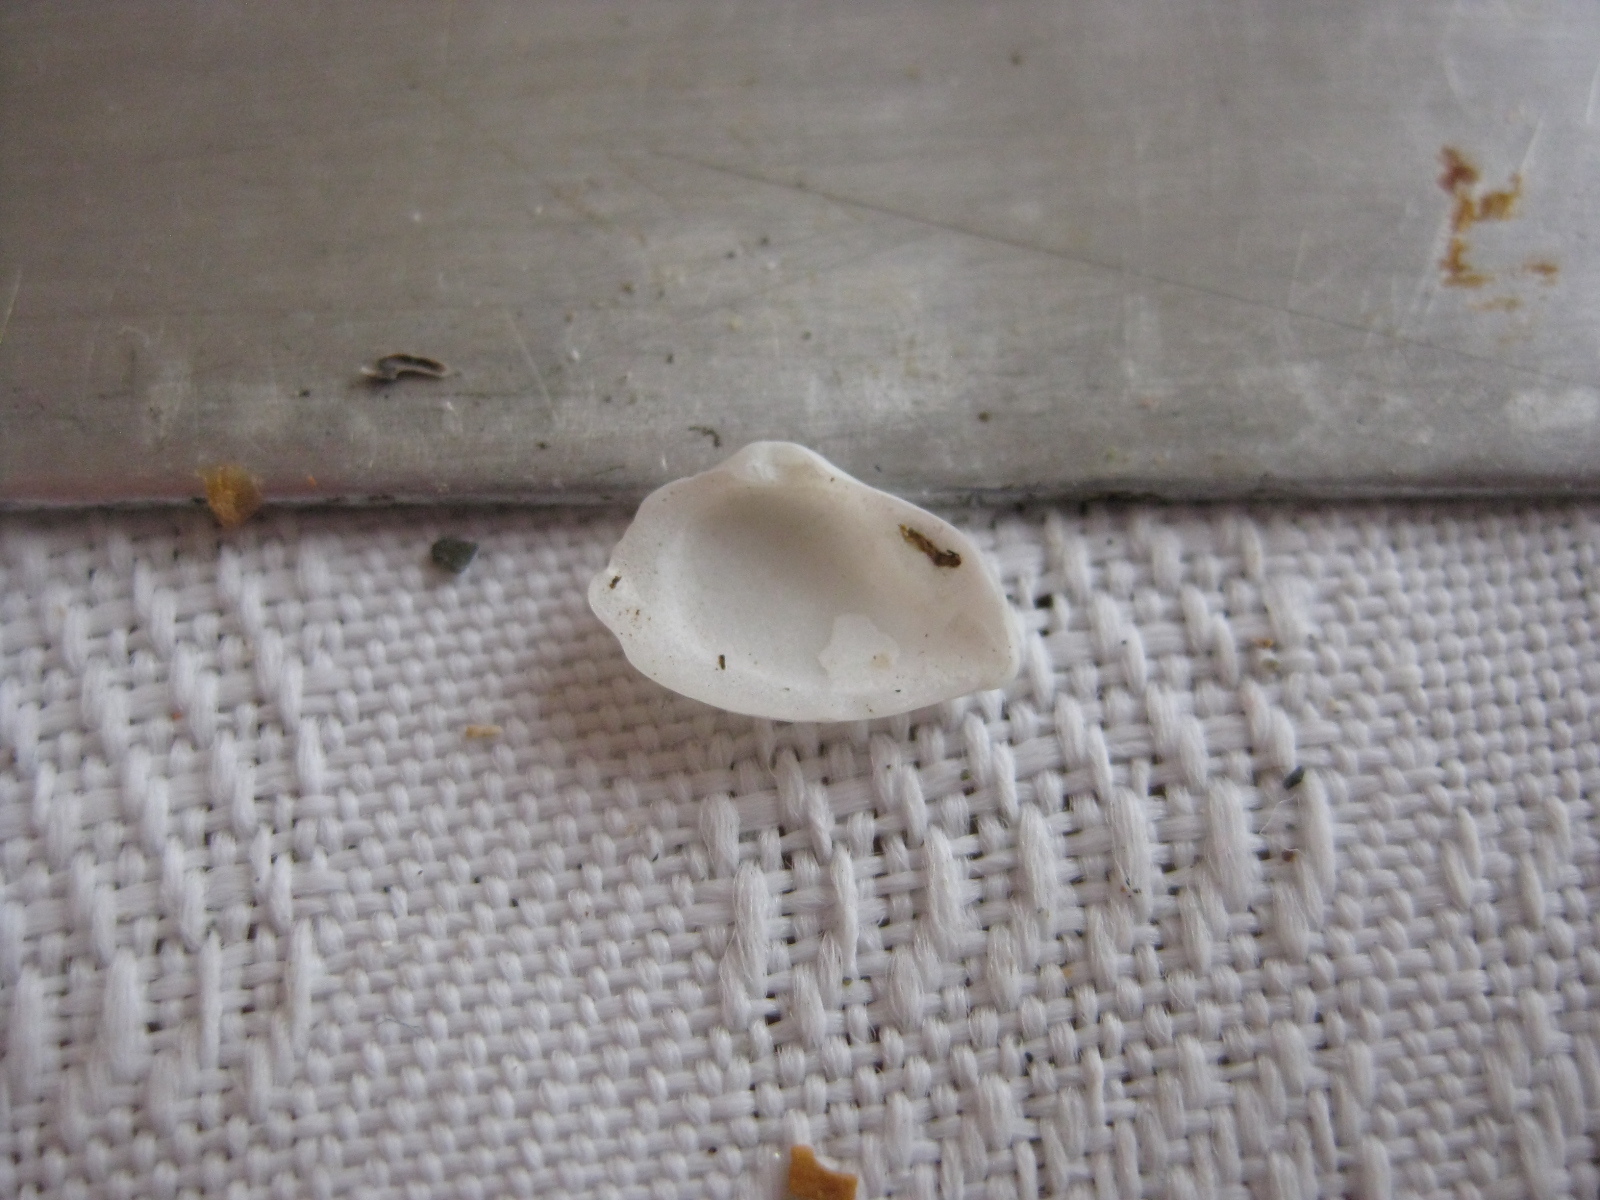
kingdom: Animalia
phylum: Mollusca
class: Bivalvia
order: Myida
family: Corbulidae
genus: Corbula
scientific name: Corbula zelandica
